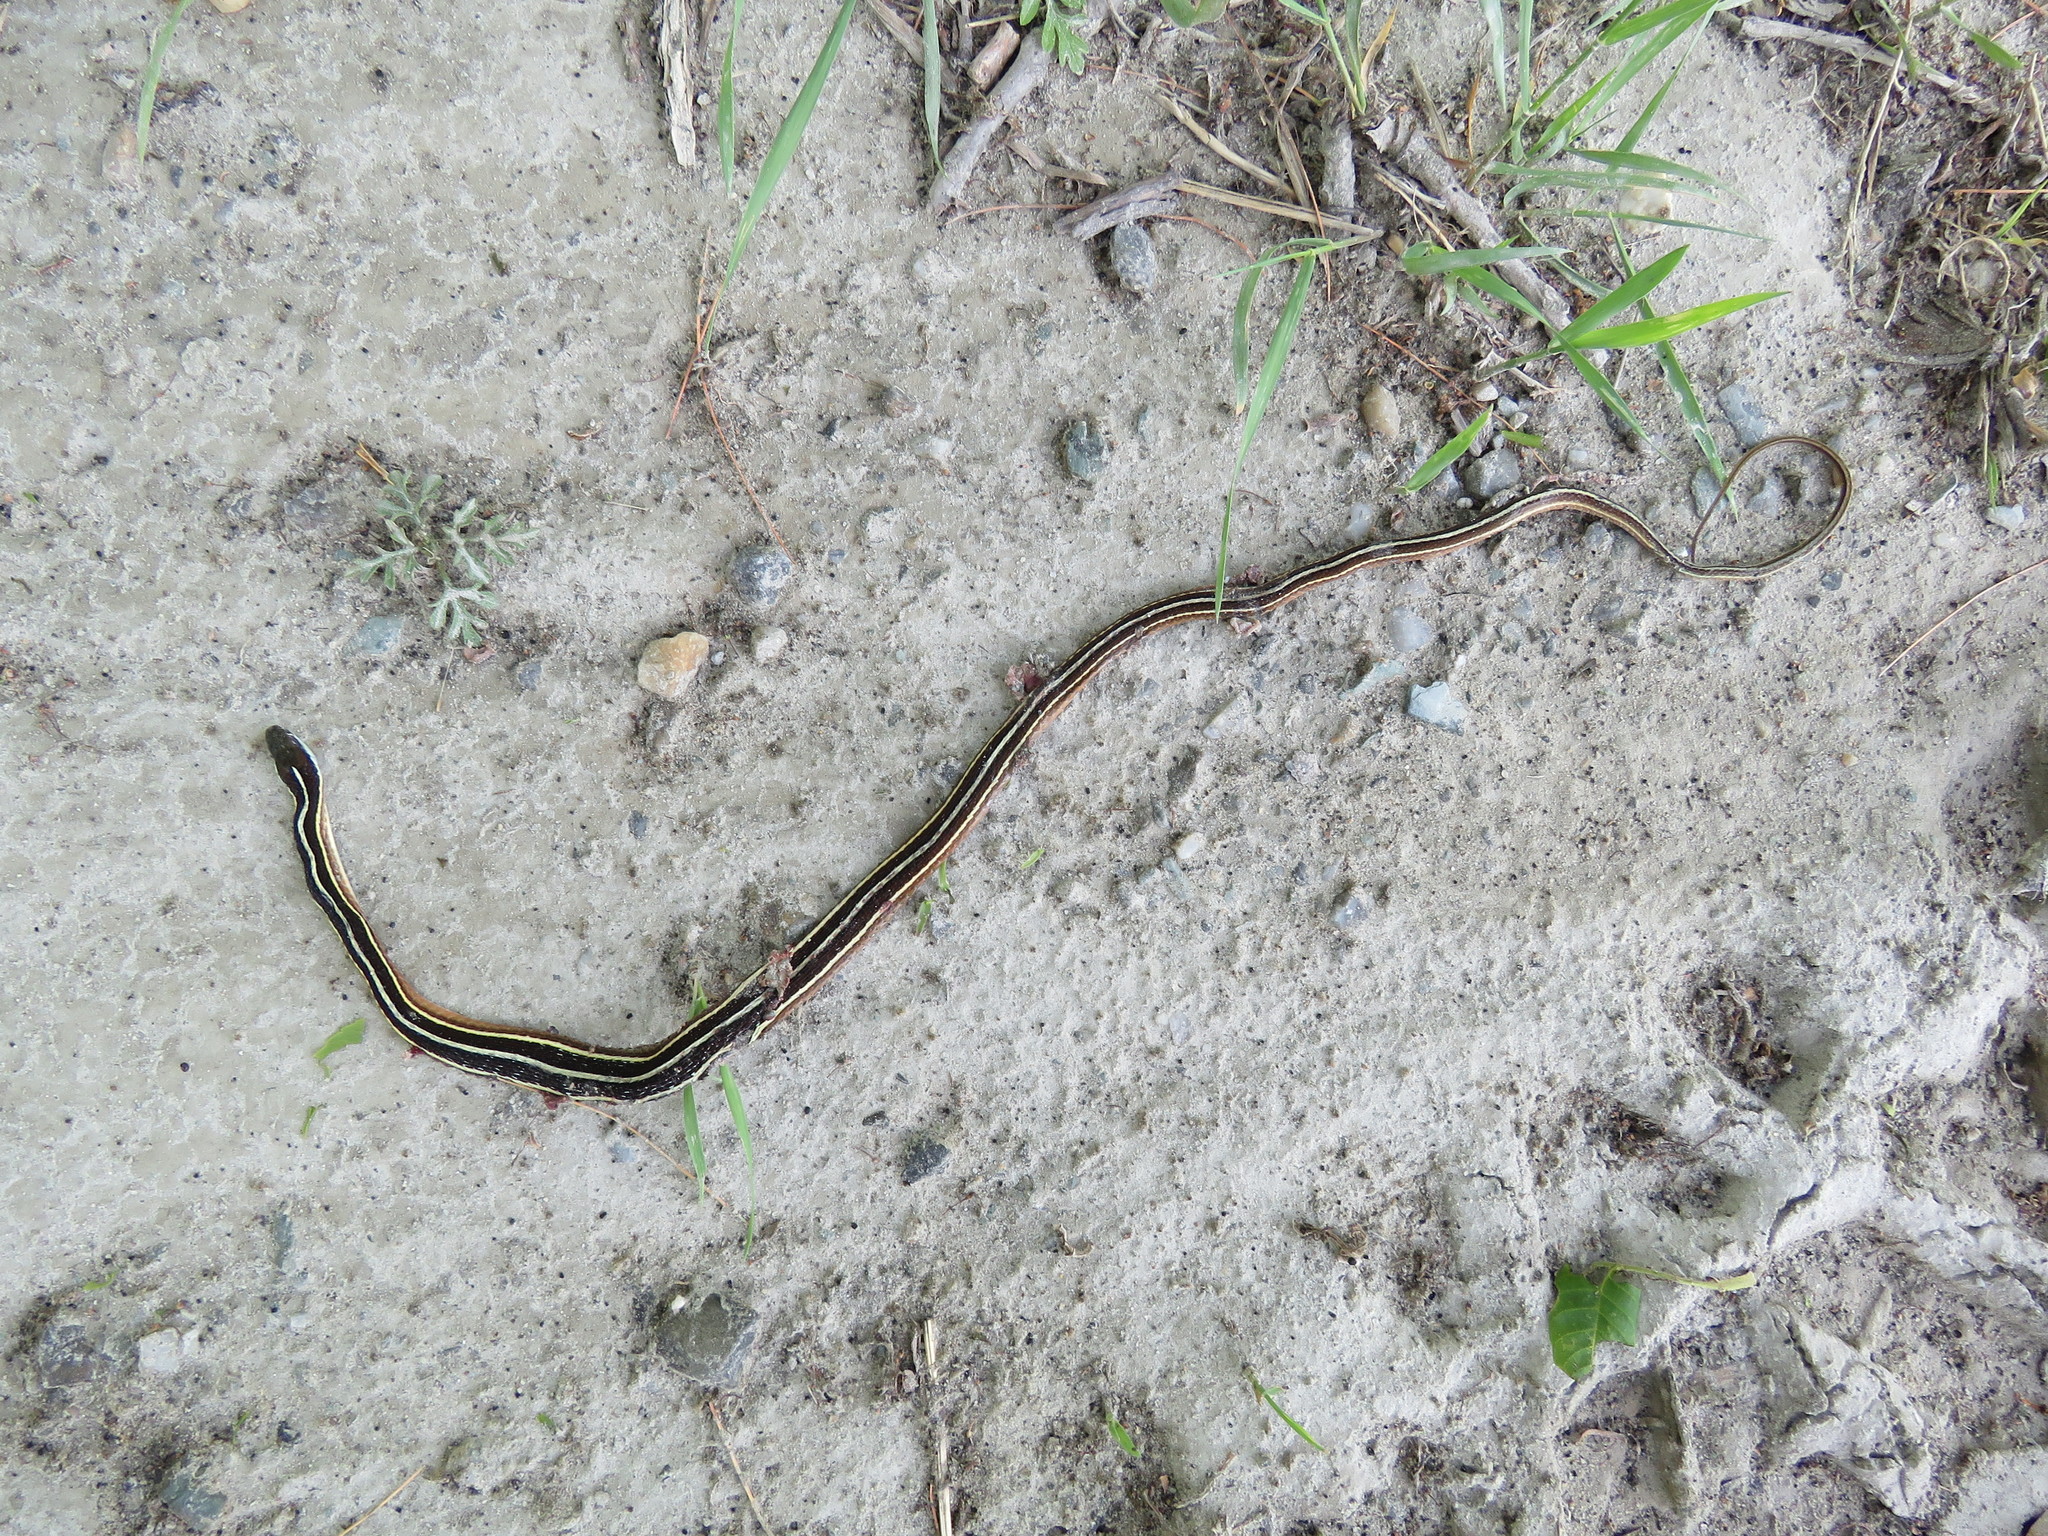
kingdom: Animalia
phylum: Chordata
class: Squamata
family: Colubridae
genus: Thamnophis
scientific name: Thamnophis saurita
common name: Eastern ribbonsnake
